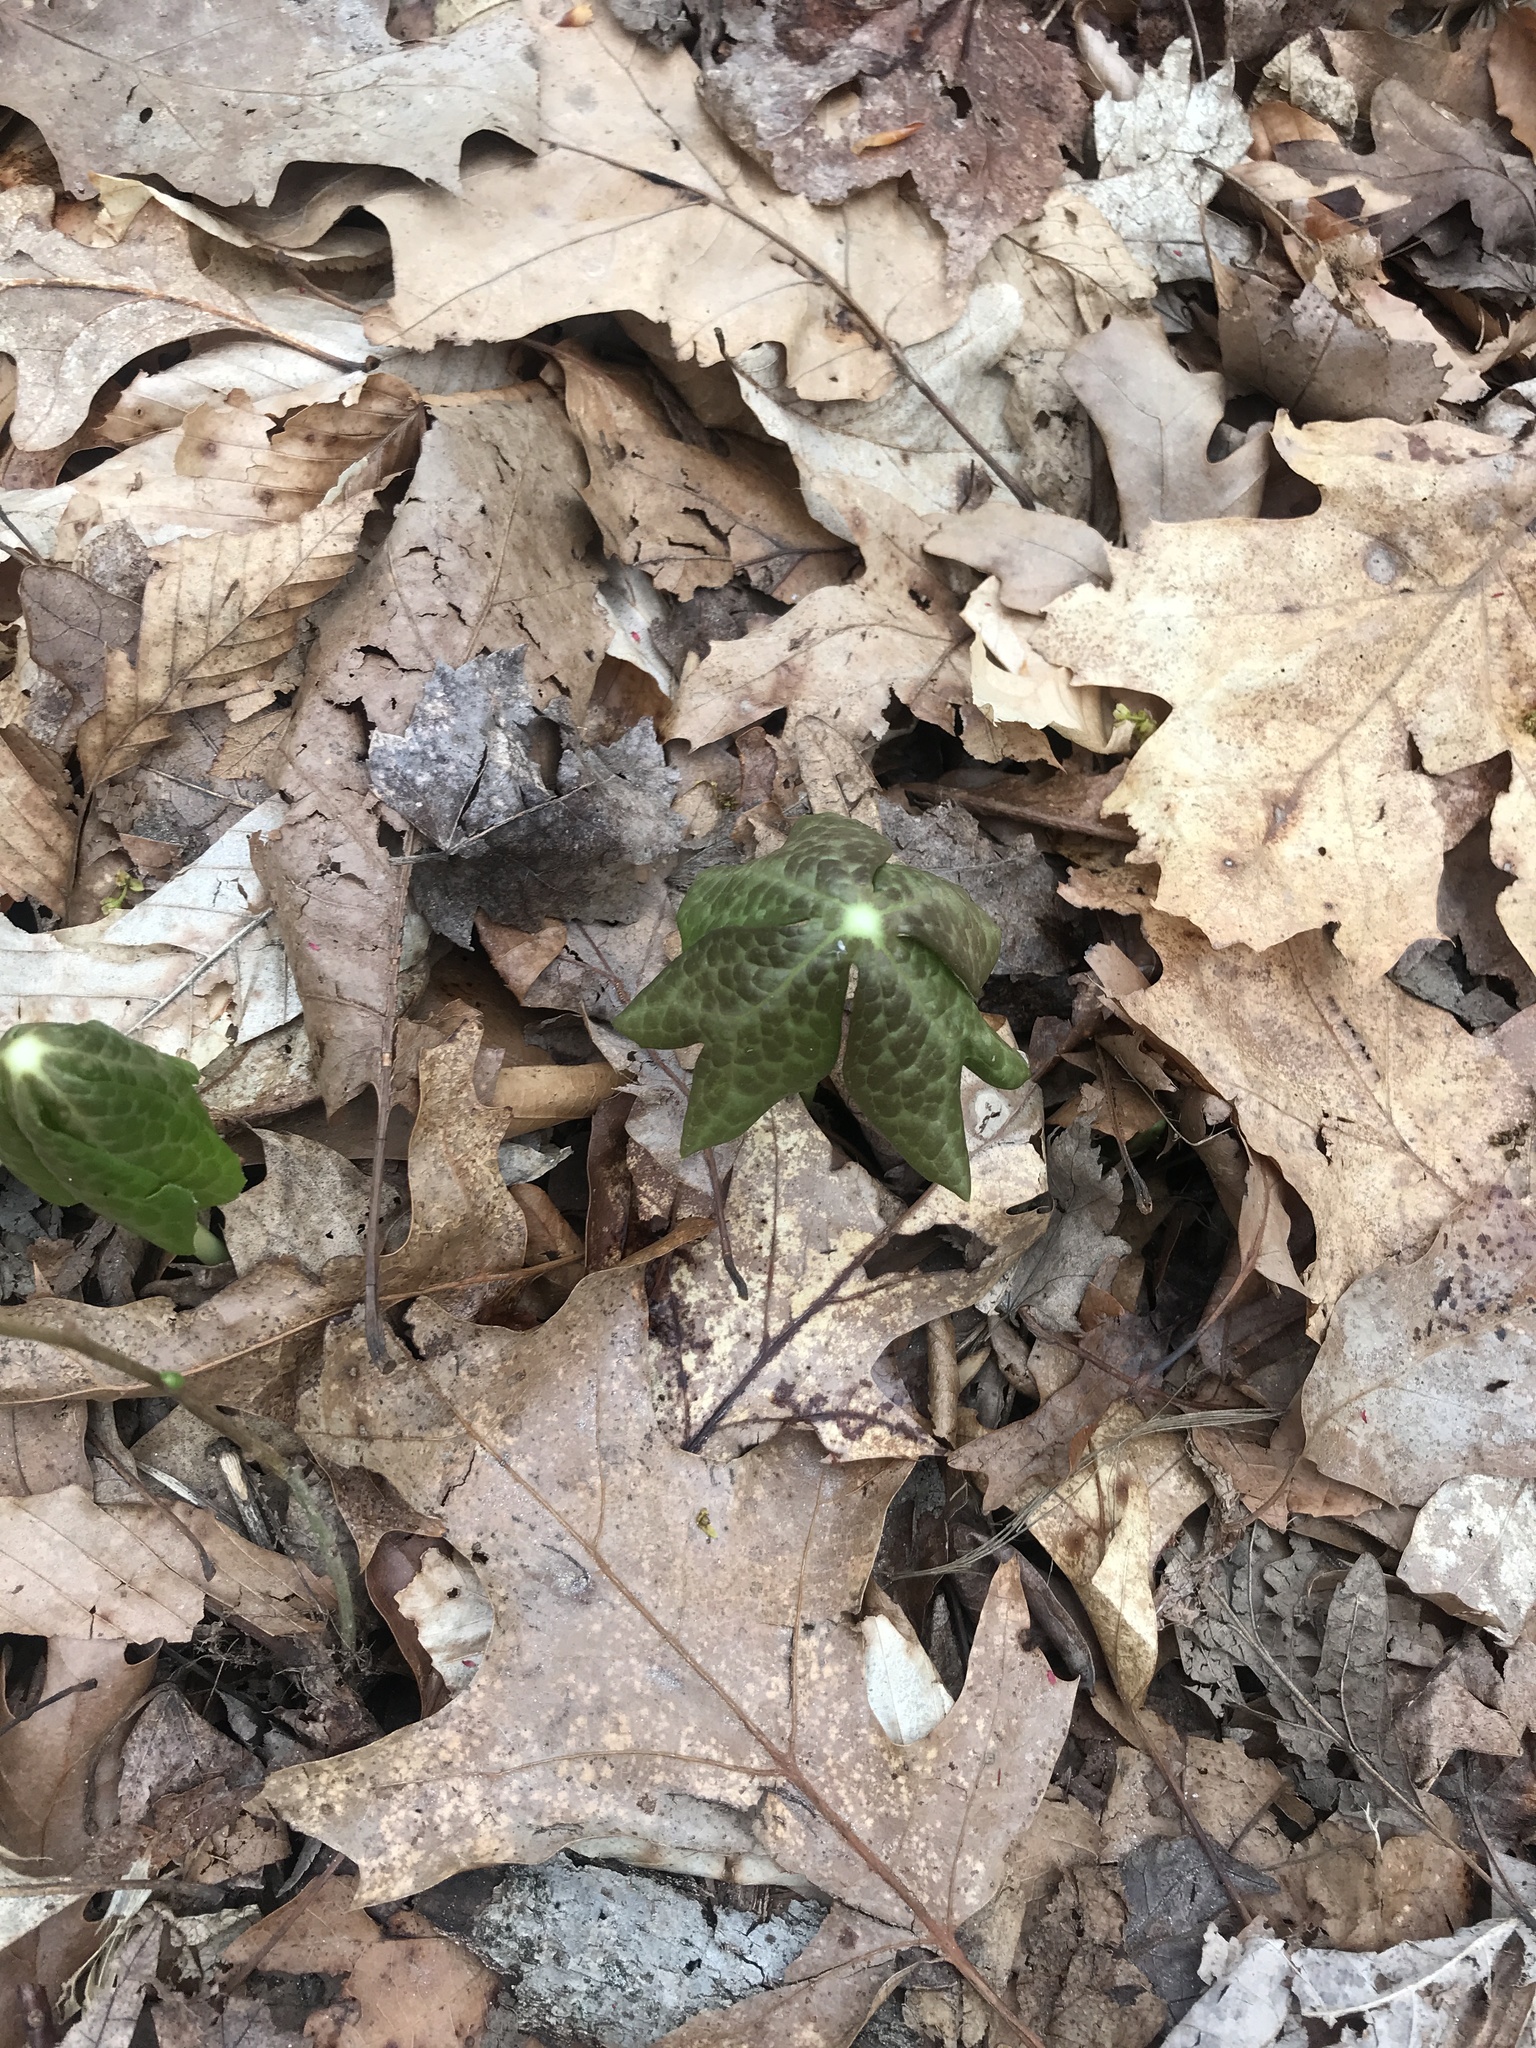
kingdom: Plantae
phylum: Tracheophyta
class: Magnoliopsida
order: Ranunculales
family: Berberidaceae
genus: Podophyllum
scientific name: Podophyllum peltatum
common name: Wild mandrake
